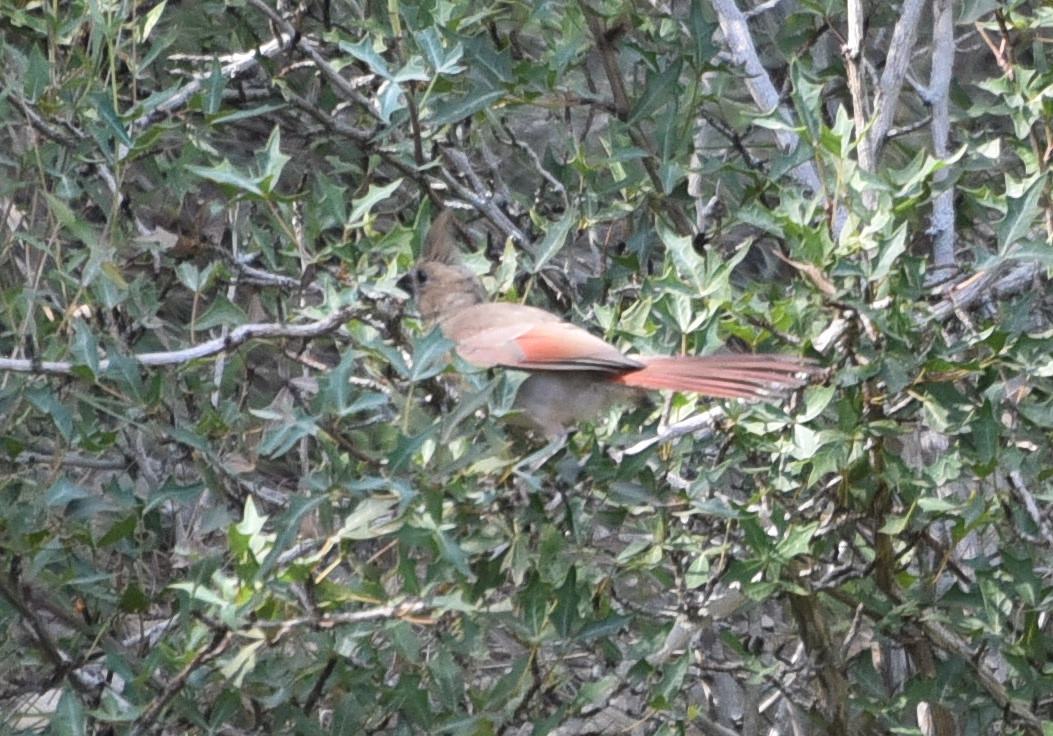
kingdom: Animalia
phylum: Chordata
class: Aves
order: Passeriformes
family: Cardinalidae
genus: Cardinalis
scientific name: Cardinalis cardinalis
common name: Northern cardinal
